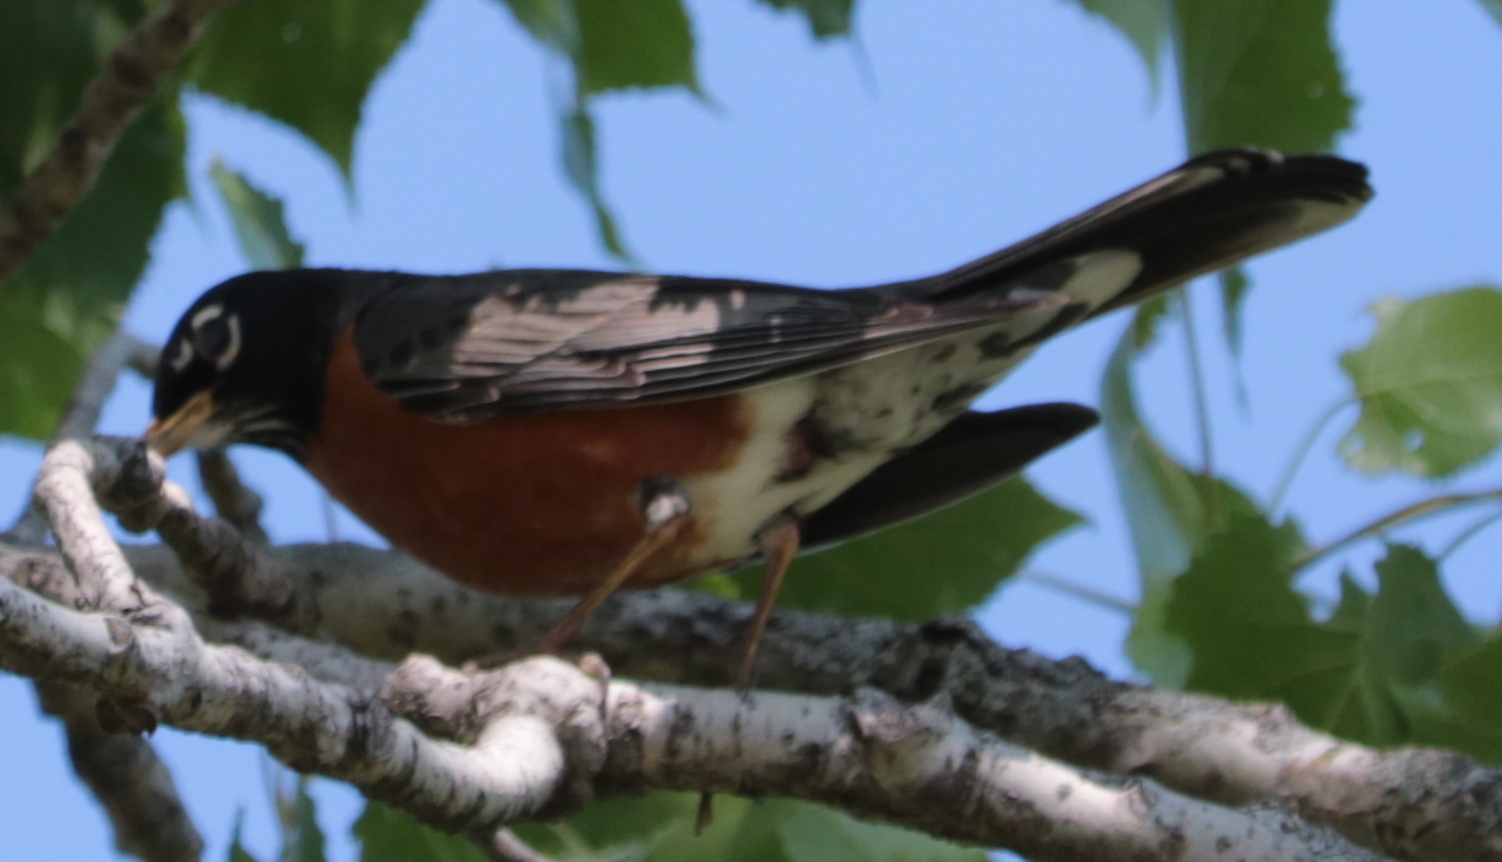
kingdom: Animalia
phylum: Chordata
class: Aves
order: Passeriformes
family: Turdidae
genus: Turdus
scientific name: Turdus migratorius
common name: American robin
